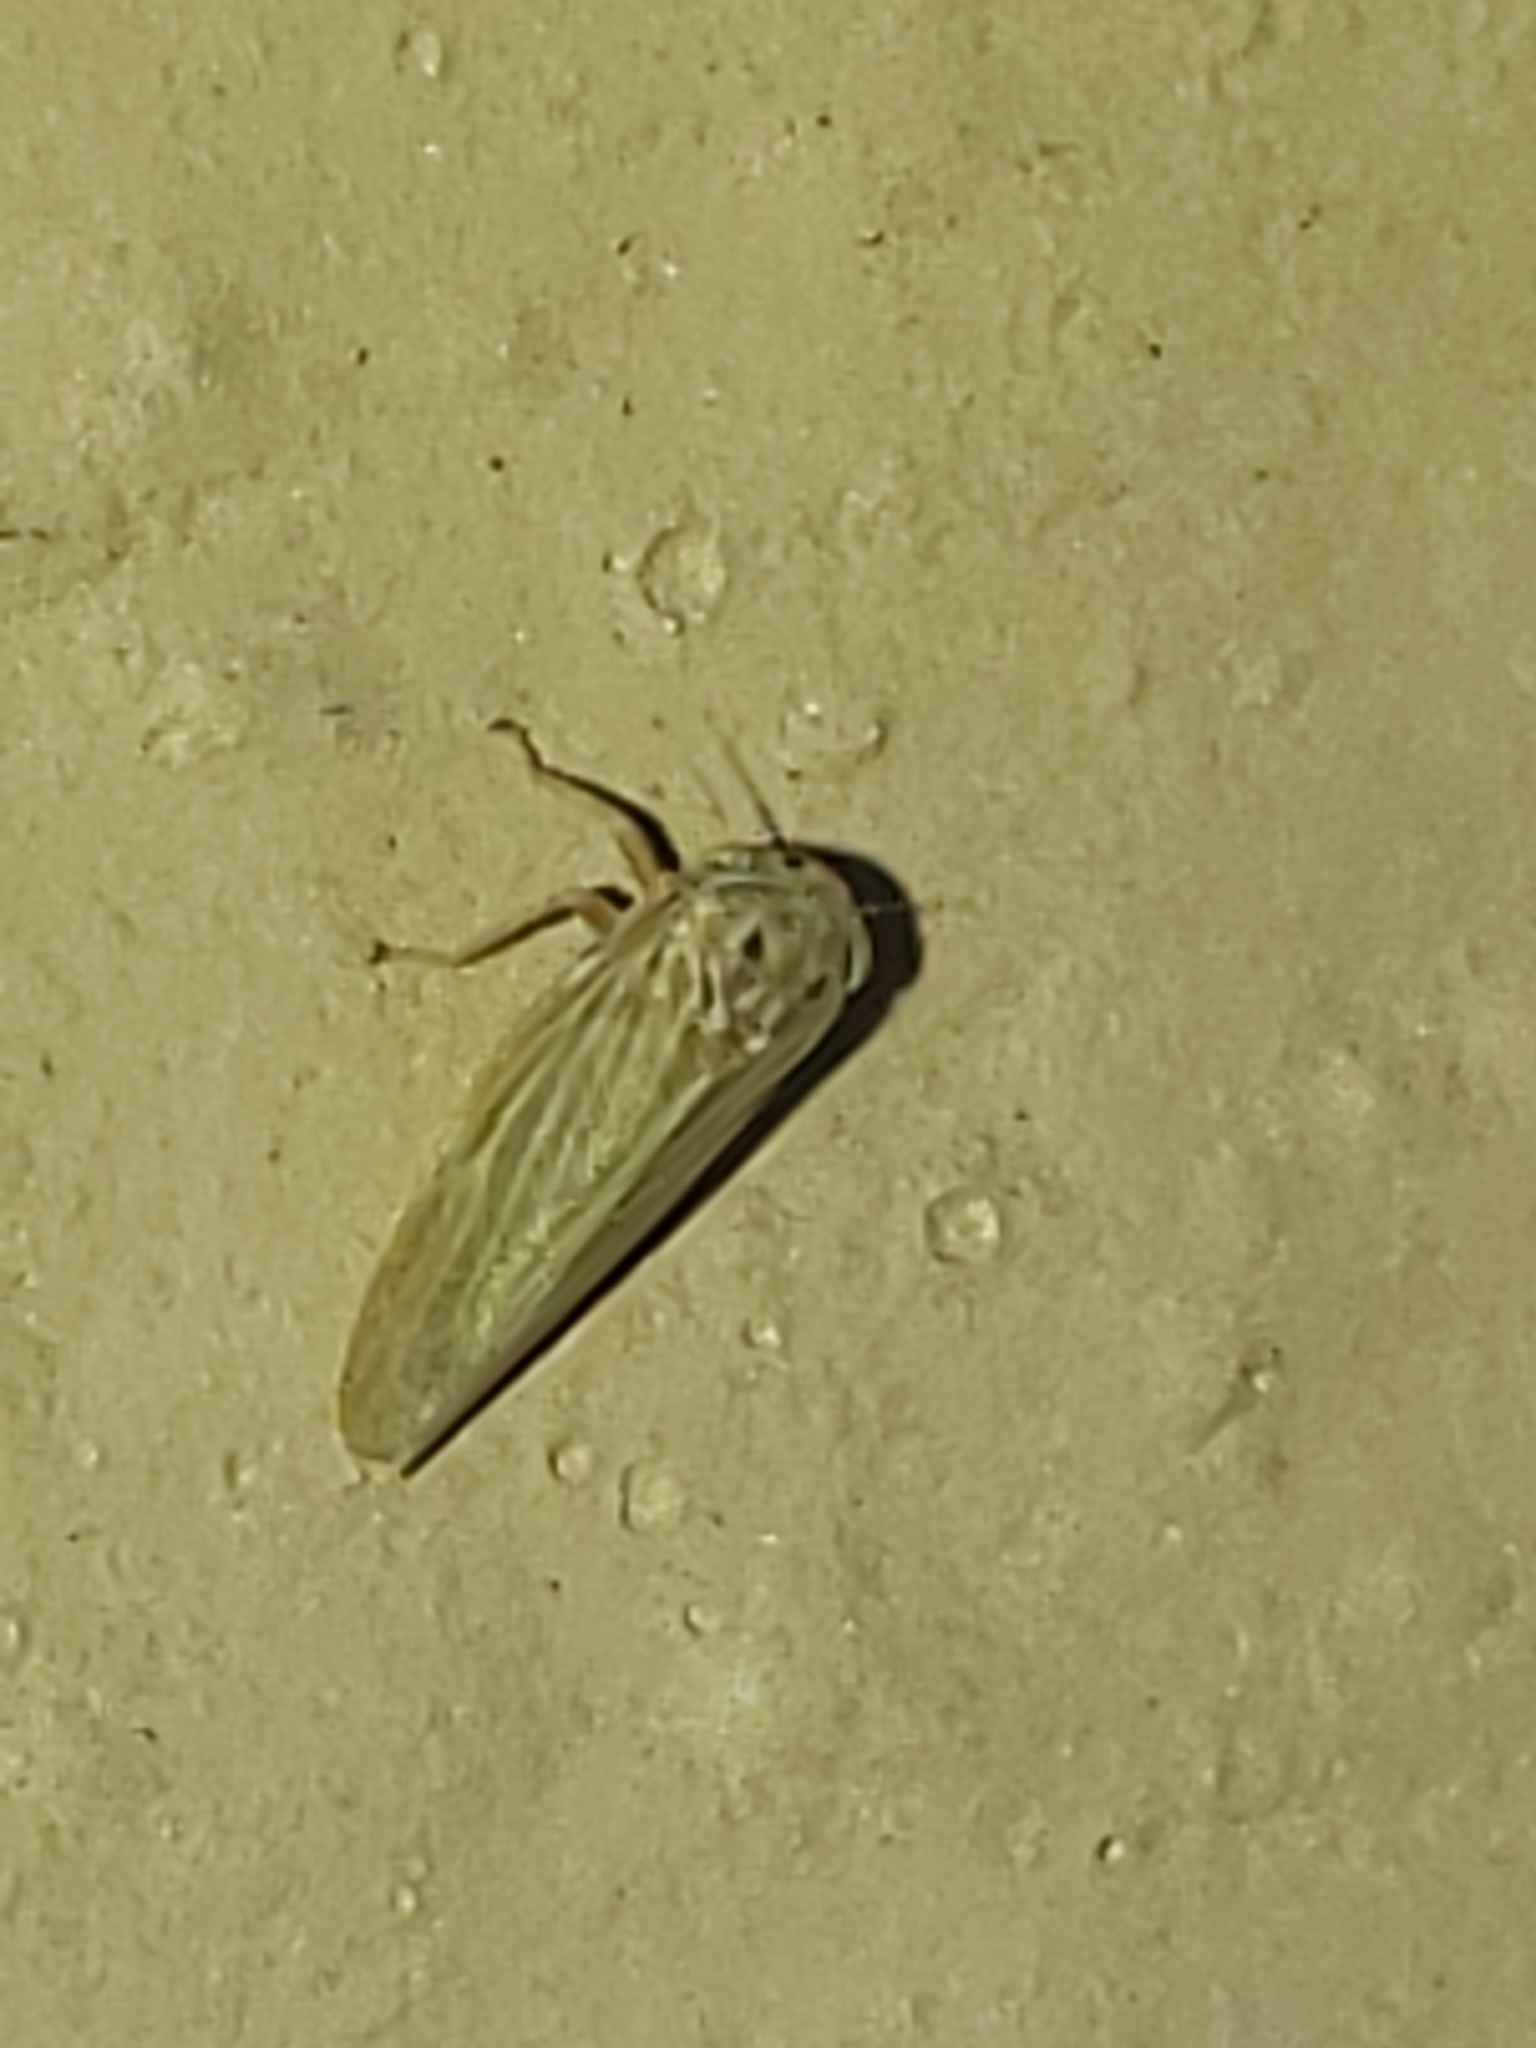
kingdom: Animalia
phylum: Arthropoda
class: Insecta
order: Hemiptera
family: Cicadellidae
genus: Agallia
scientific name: Agallia constricta
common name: The constricted leafhopper
